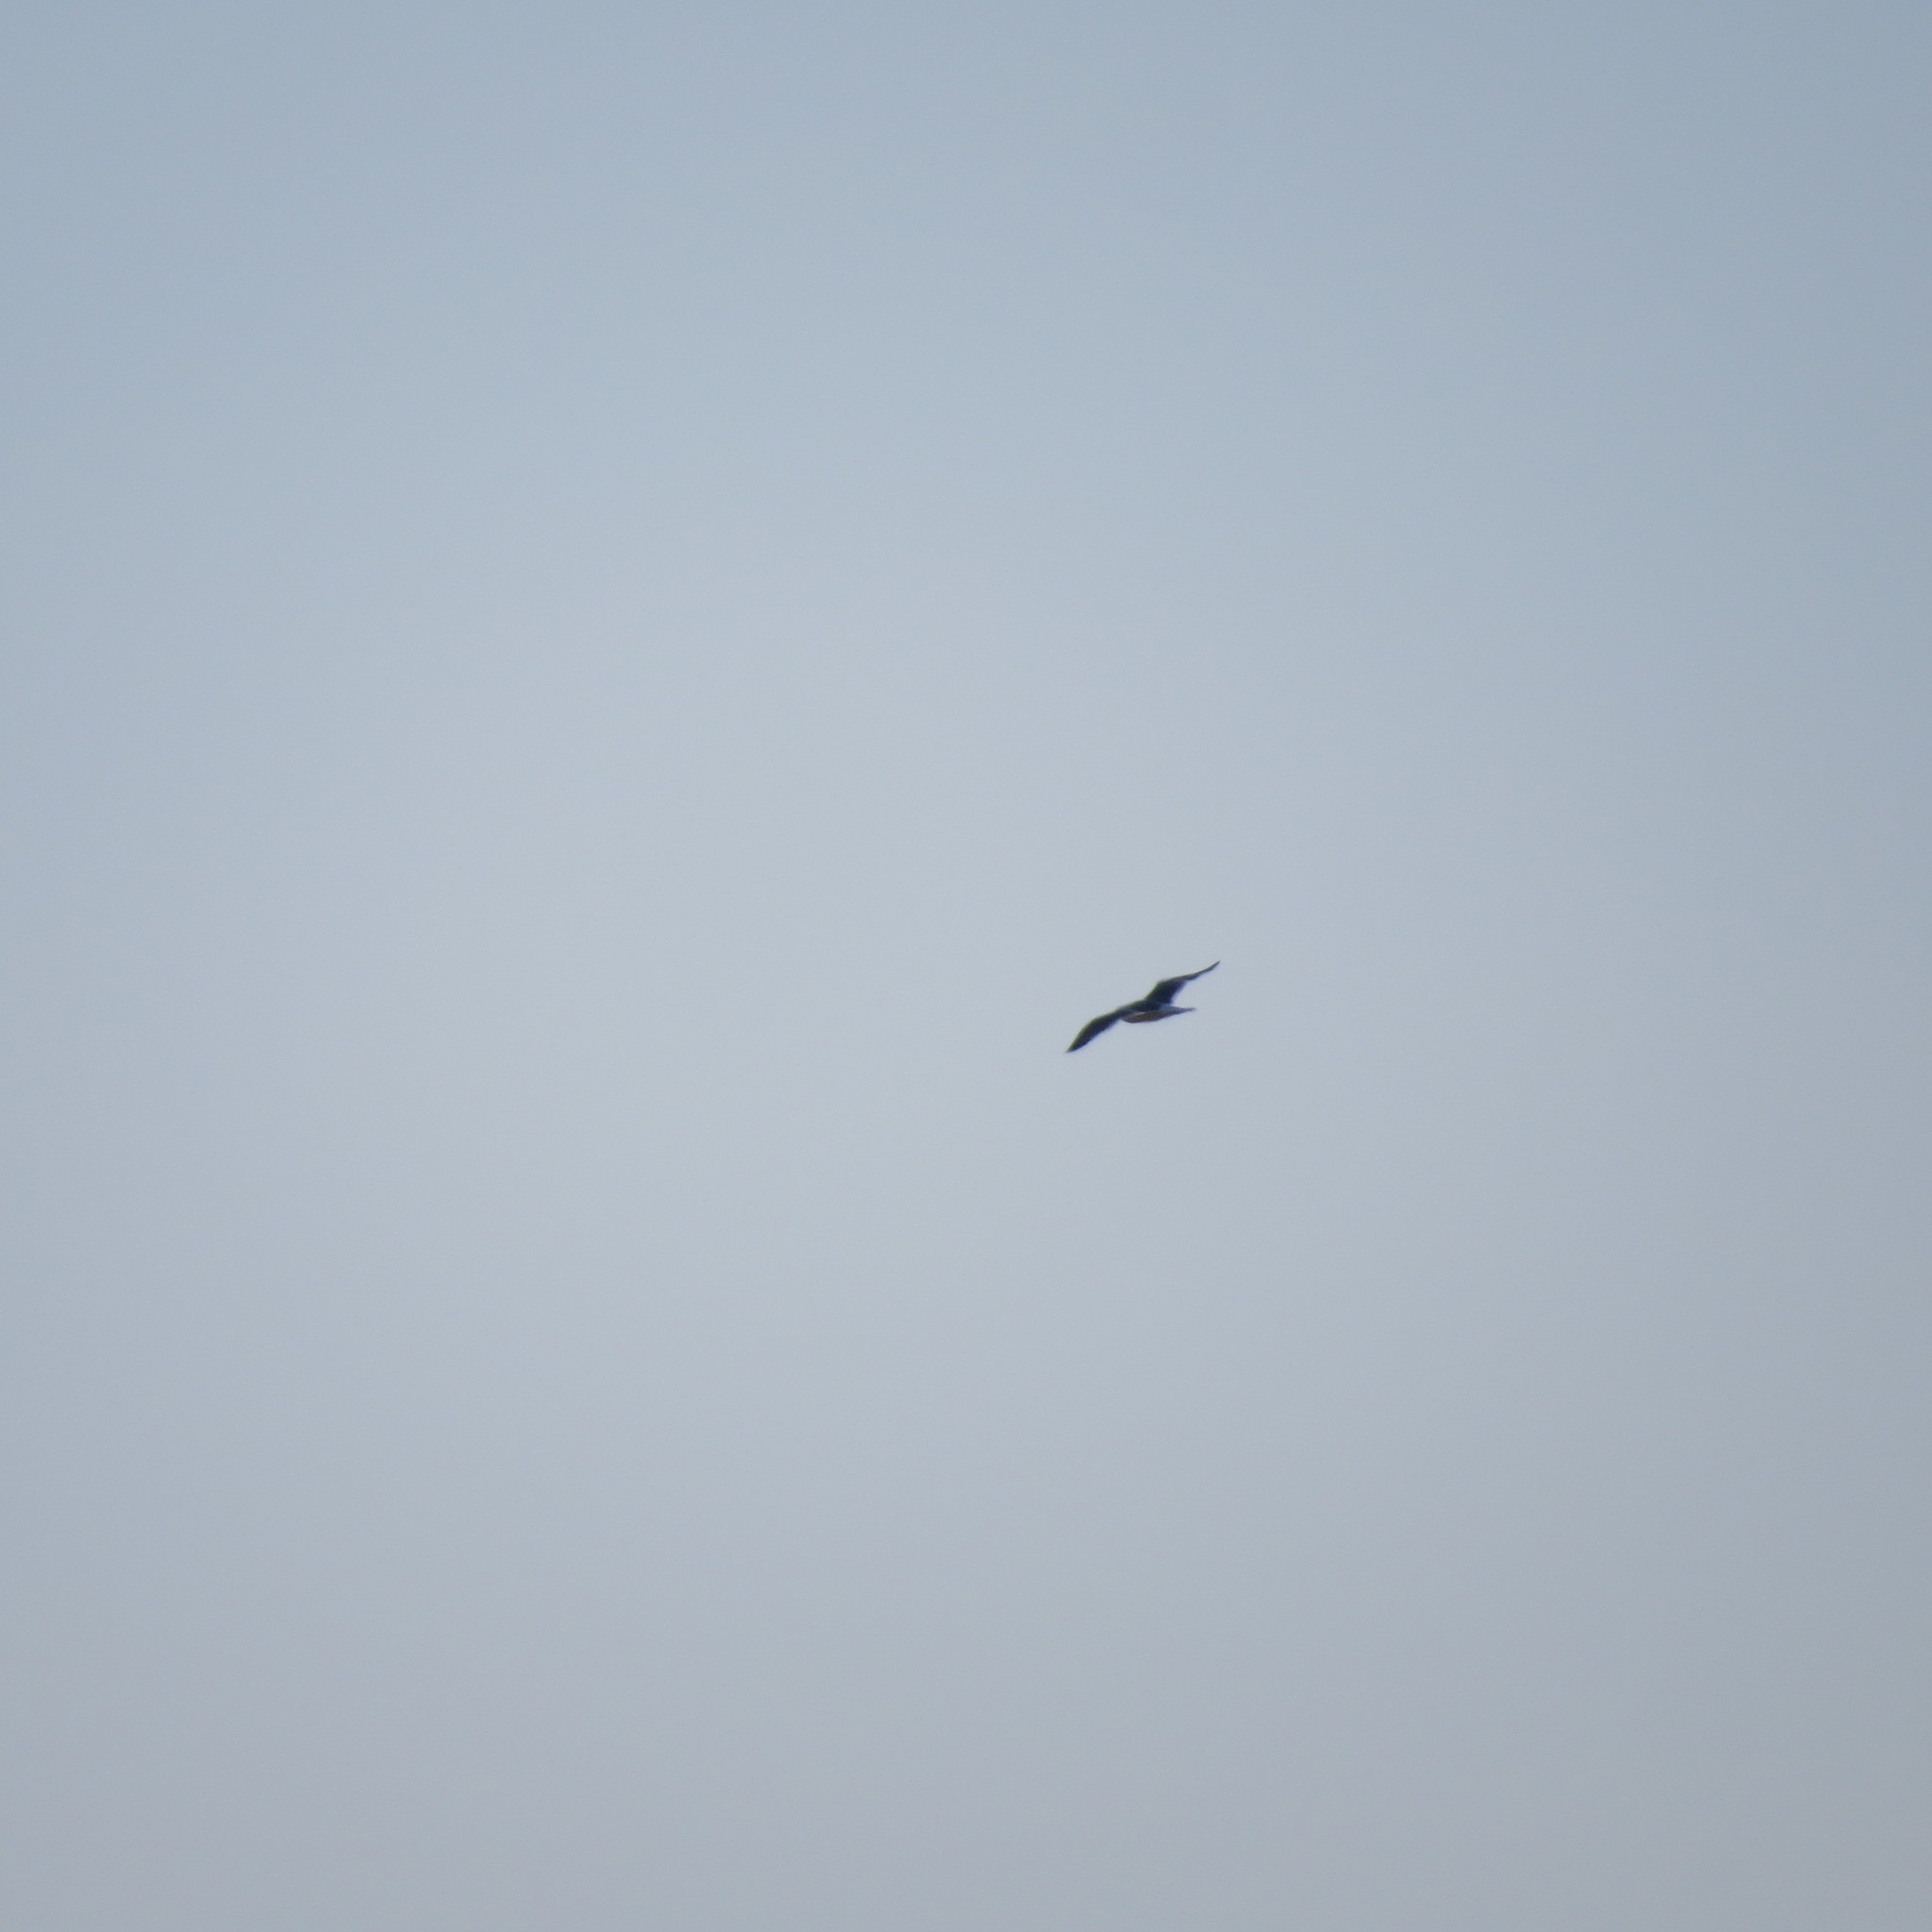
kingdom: Animalia
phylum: Chordata
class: Aves
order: Charadriiformes
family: Laridae
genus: Larus
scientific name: Larus
